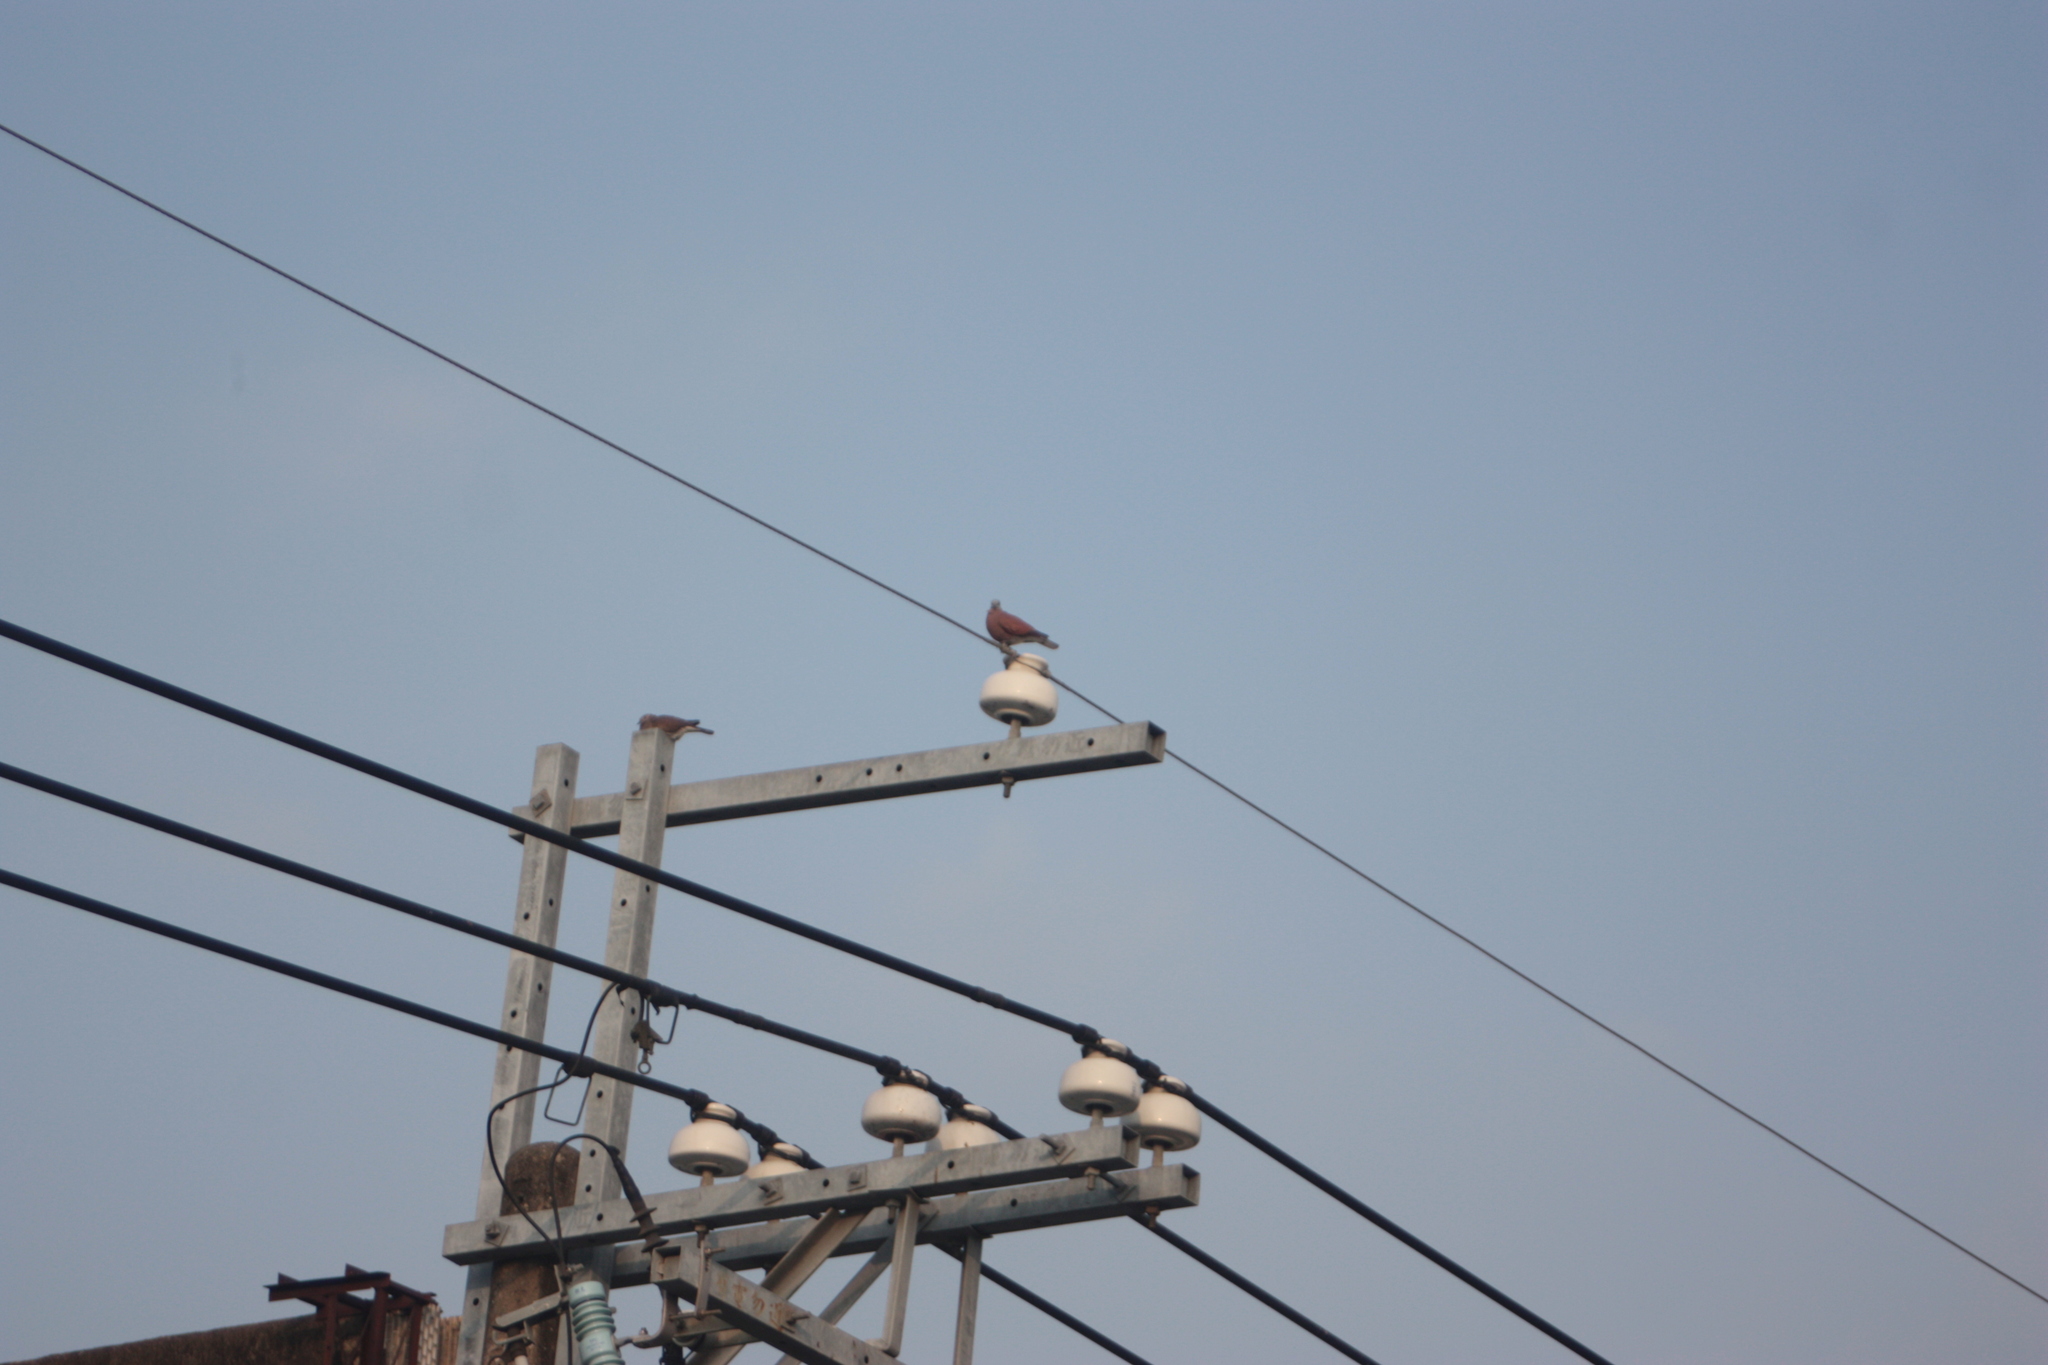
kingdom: Animalia
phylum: Chordata
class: Aves
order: Columbiformes
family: Columbidae
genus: Streptopelia
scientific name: Streptopelia tranquebarica
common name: Red turtle dove
